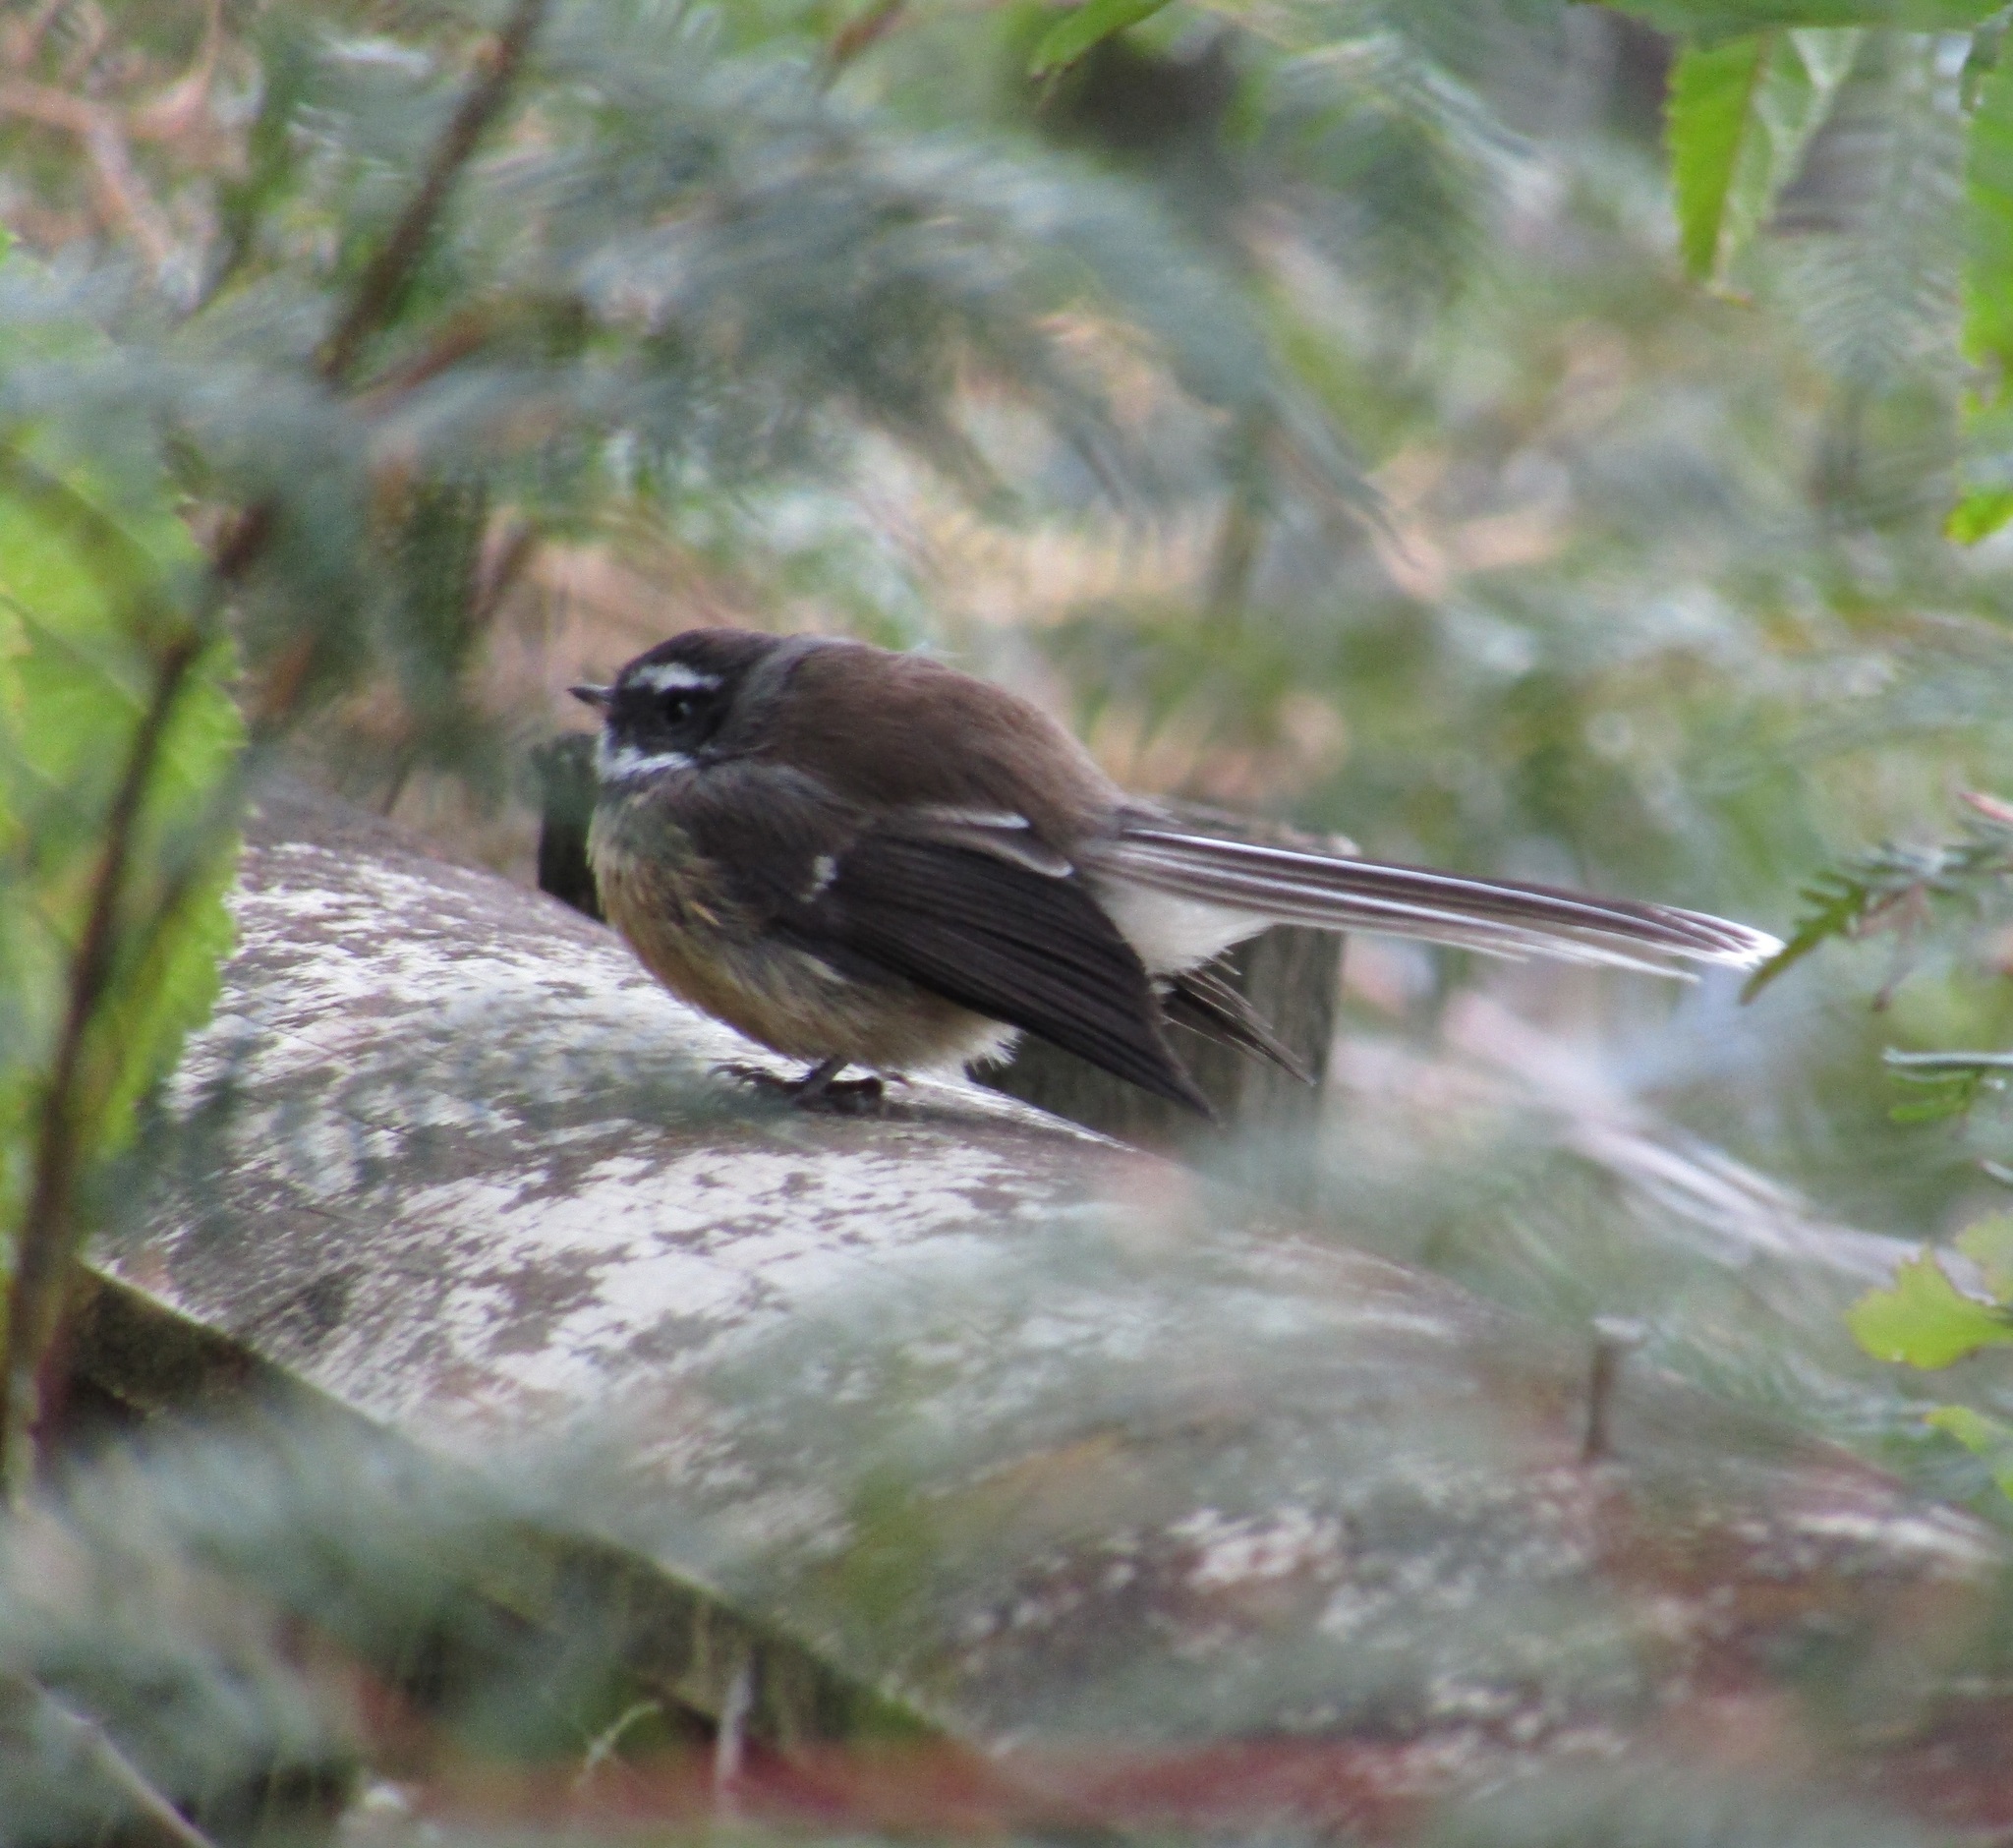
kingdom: Animalia
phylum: Chordata
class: Aves
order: Passeriformes
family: Rhipiduridae
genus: Rhipidura
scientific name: Rhipidura fuliginosa
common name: New zealand fantail
